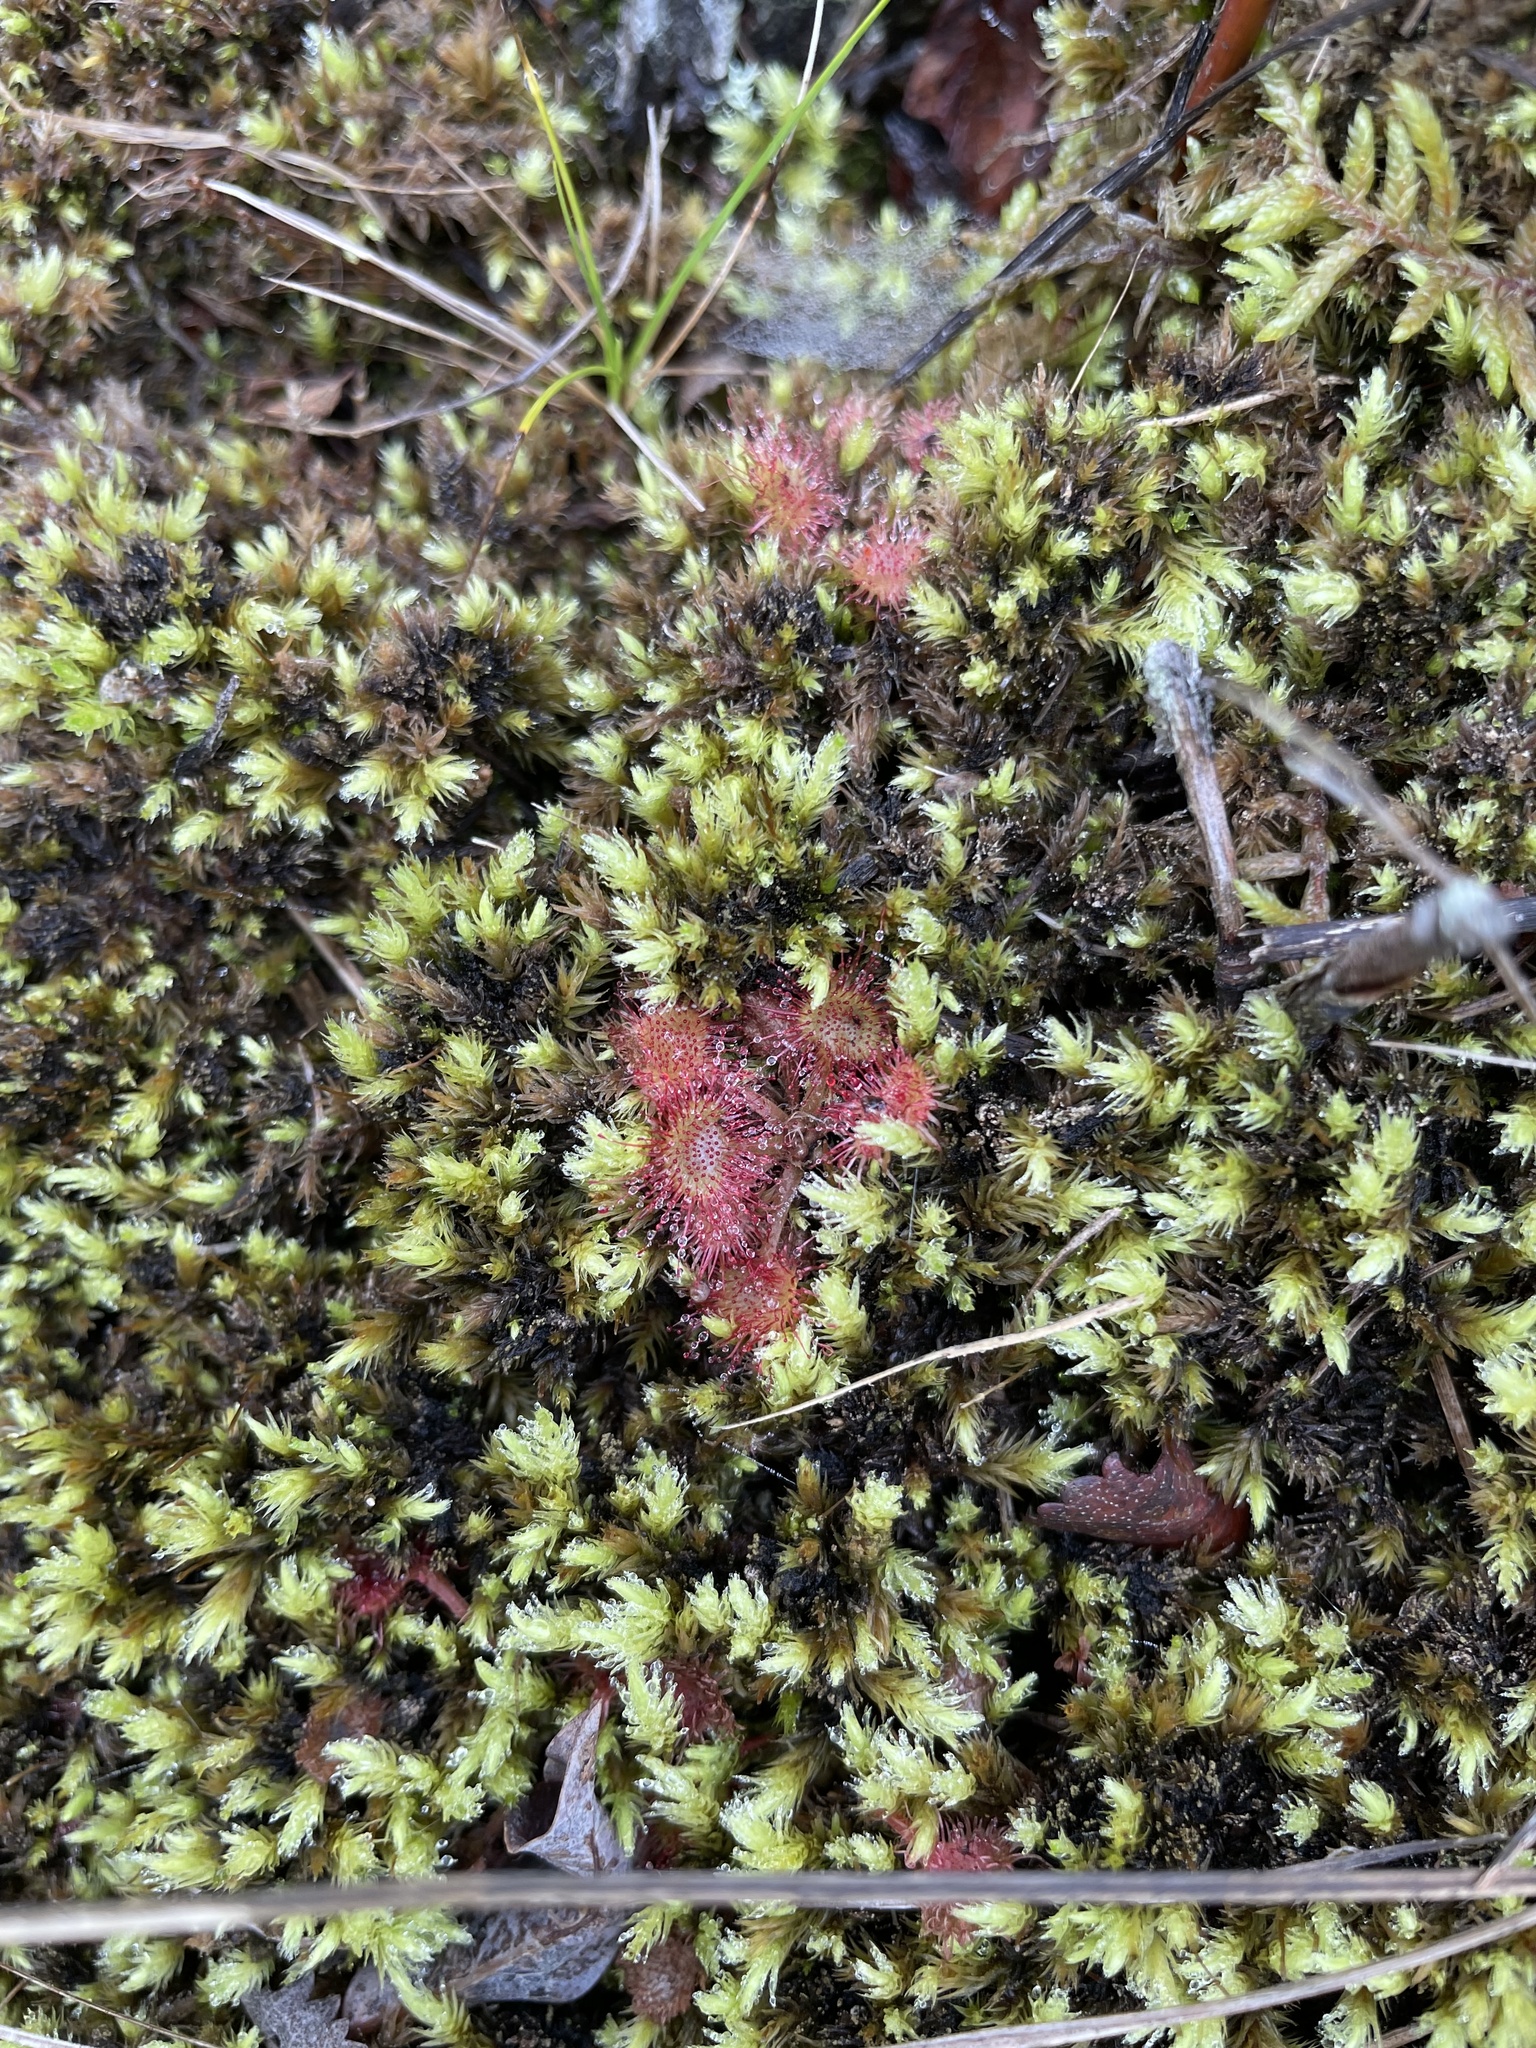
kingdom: Plantae
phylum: Tracheophyta
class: Magnoliopsida
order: Caryophyllales
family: Droseraceae
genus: Drosera
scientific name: Drosera rotundifolia
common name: Round-leaved sundew
